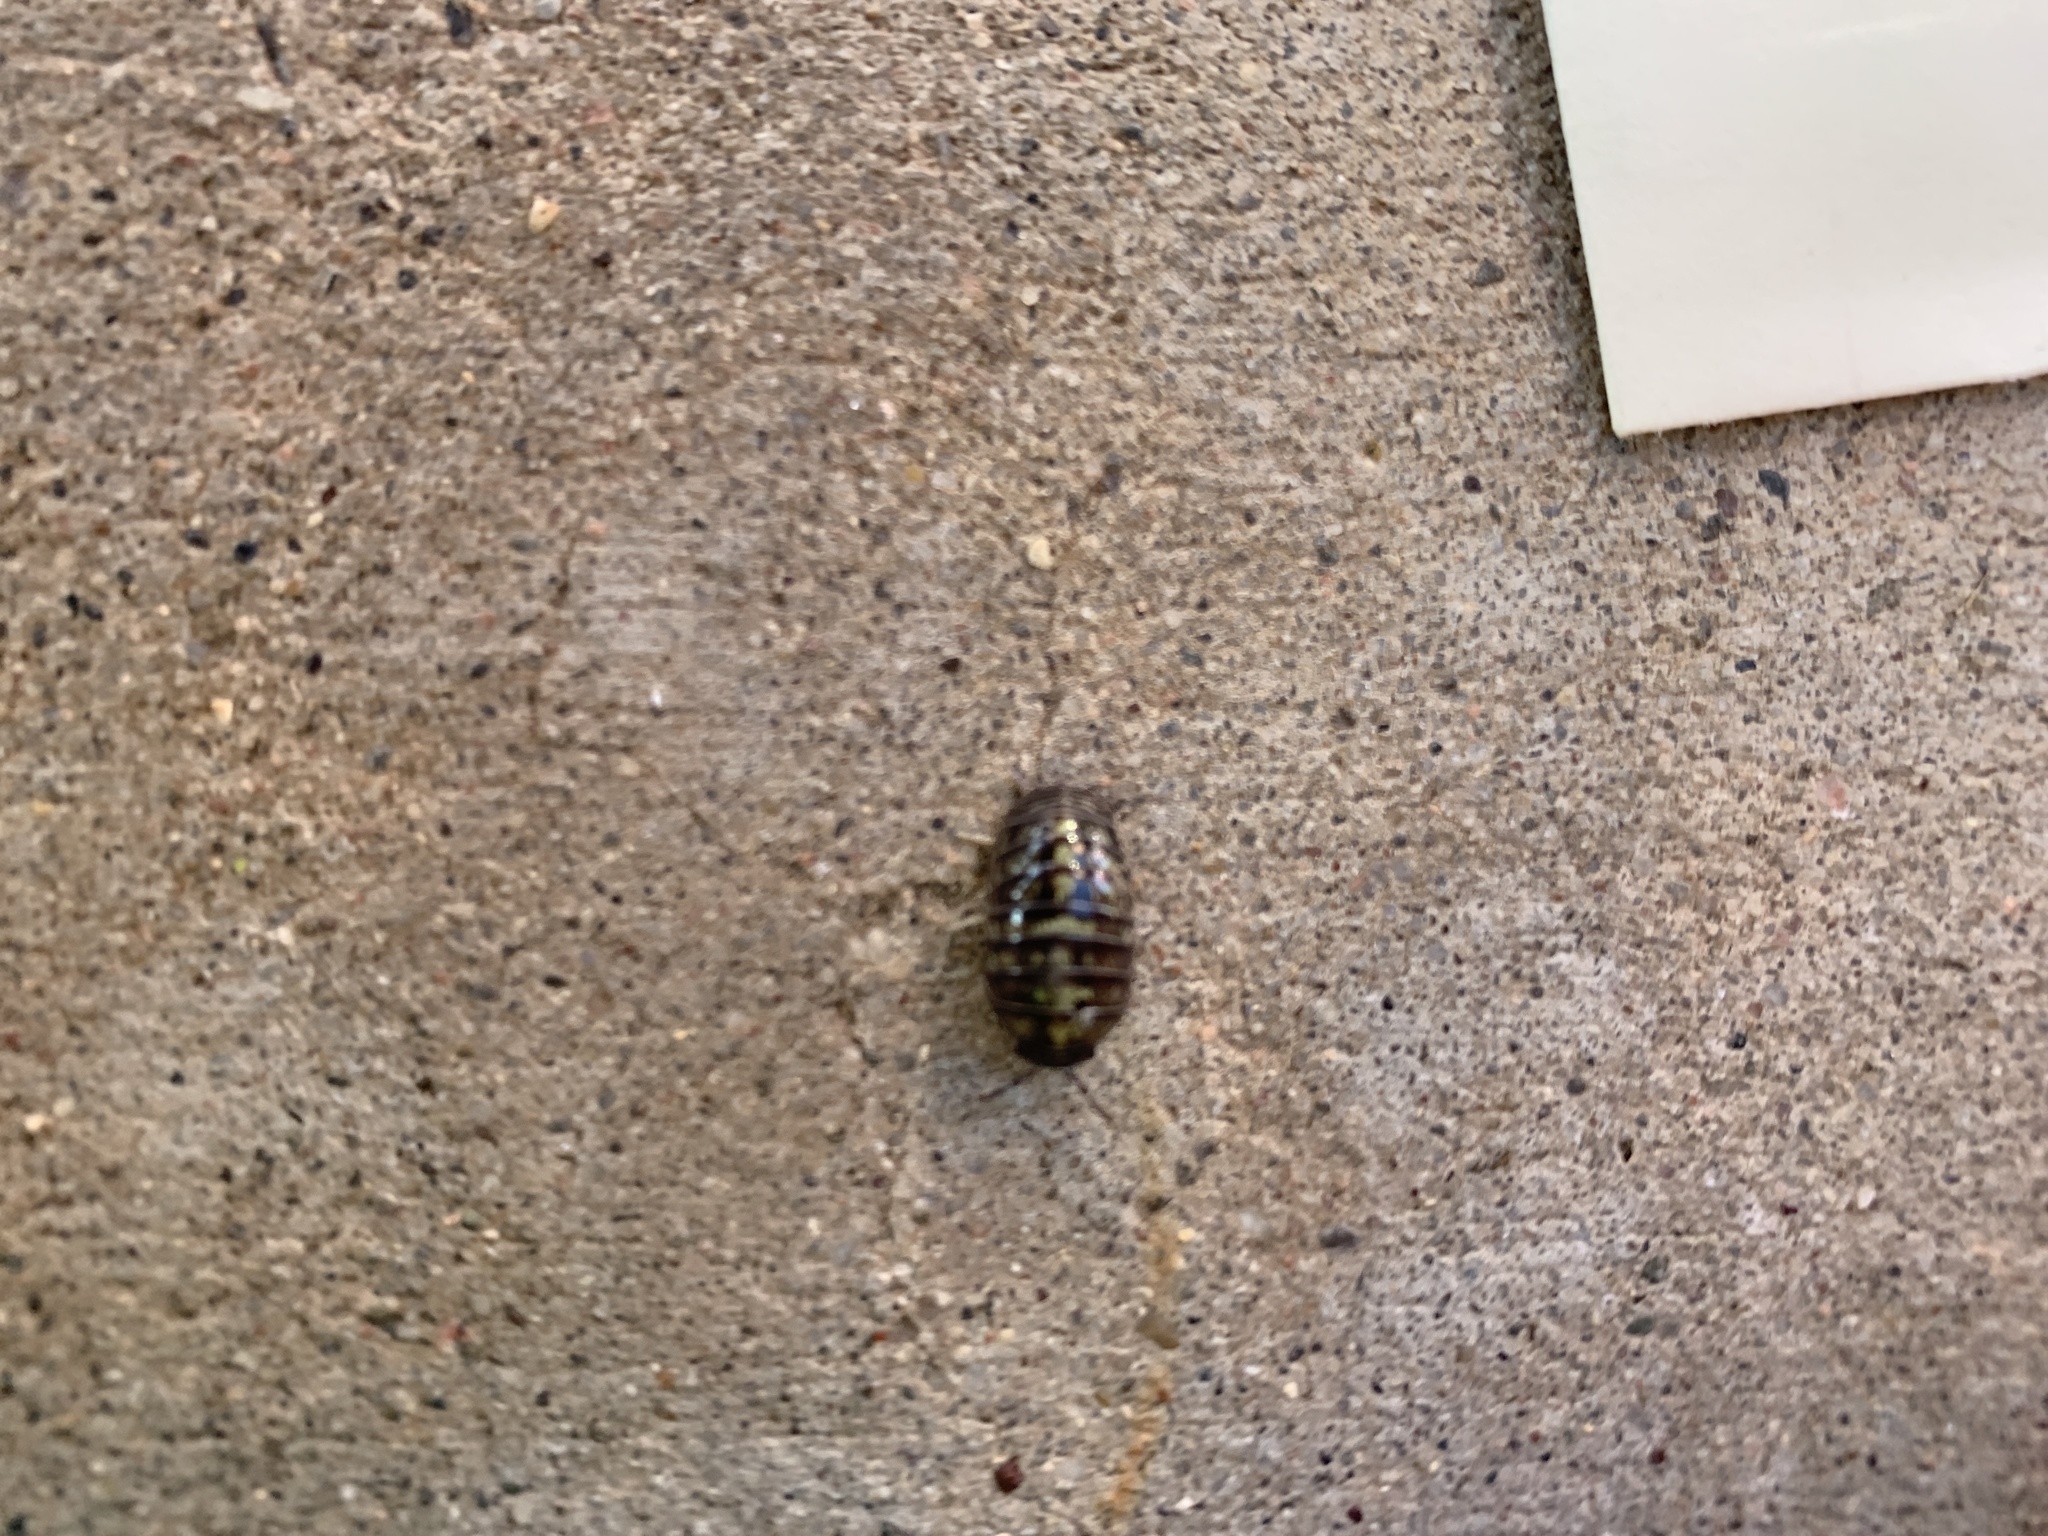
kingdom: Animalia
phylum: Arthropoda
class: Malacostraca
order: Isopoda
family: Armadillidiidae
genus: Armadillidium
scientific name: Armadillidium vulgare
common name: Common pill woodlouse
